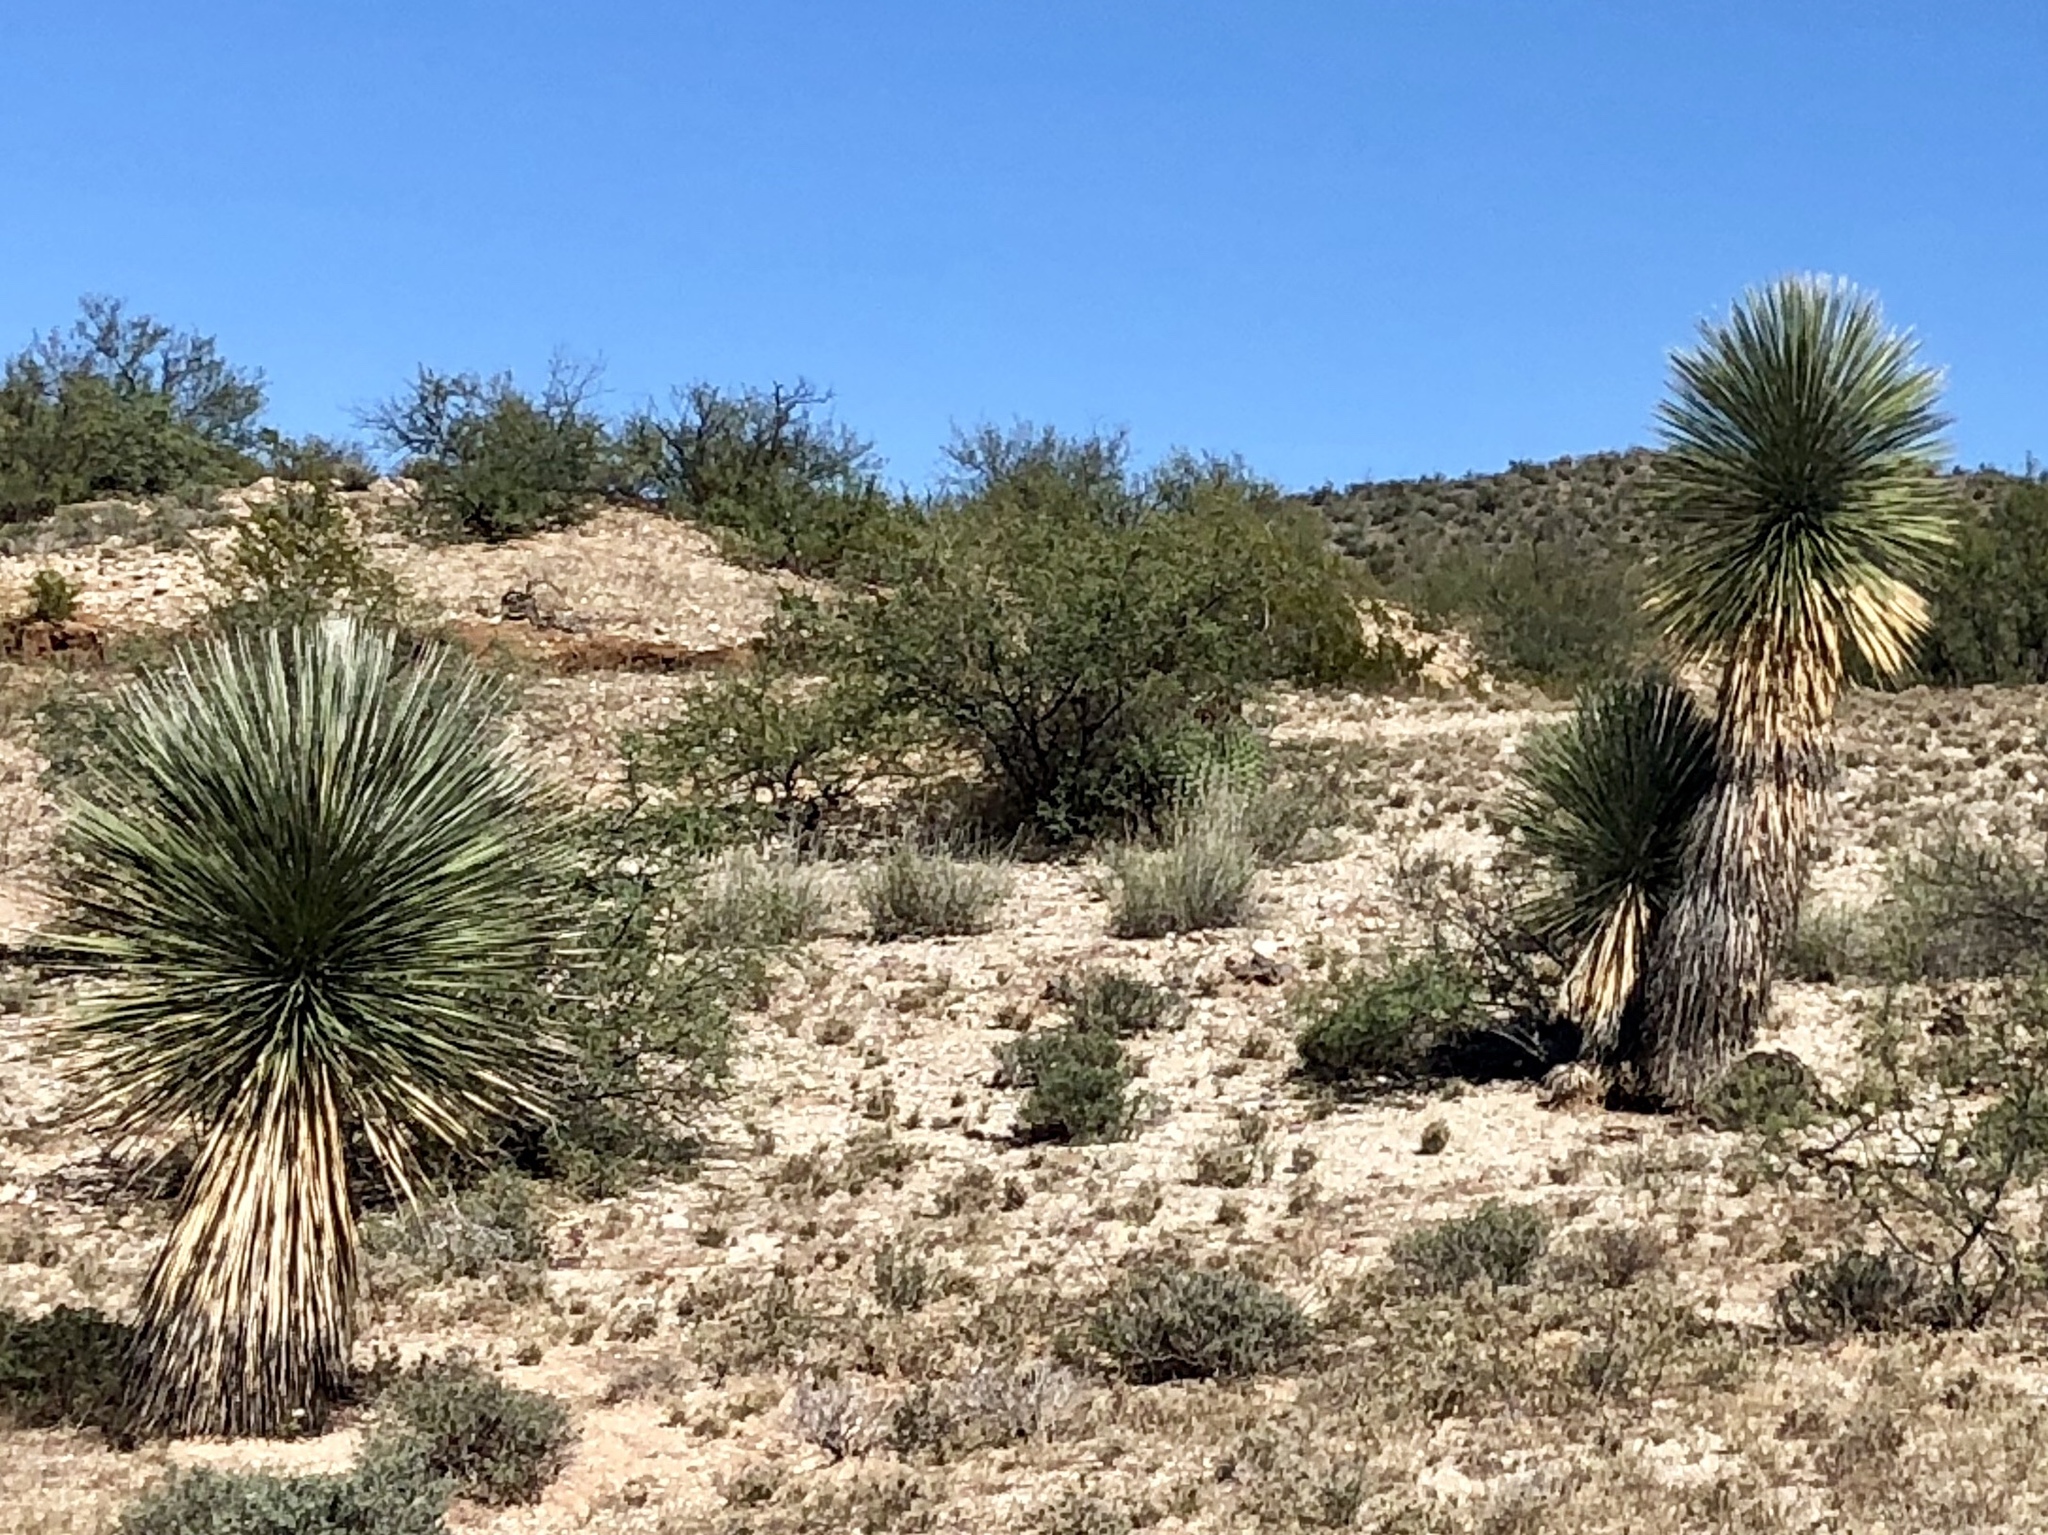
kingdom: Plantae
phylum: Tracheophyta
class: Liliopsida
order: Asparagales
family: Asparagaceae
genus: Yucca
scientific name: Yucca elata
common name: Palmella
